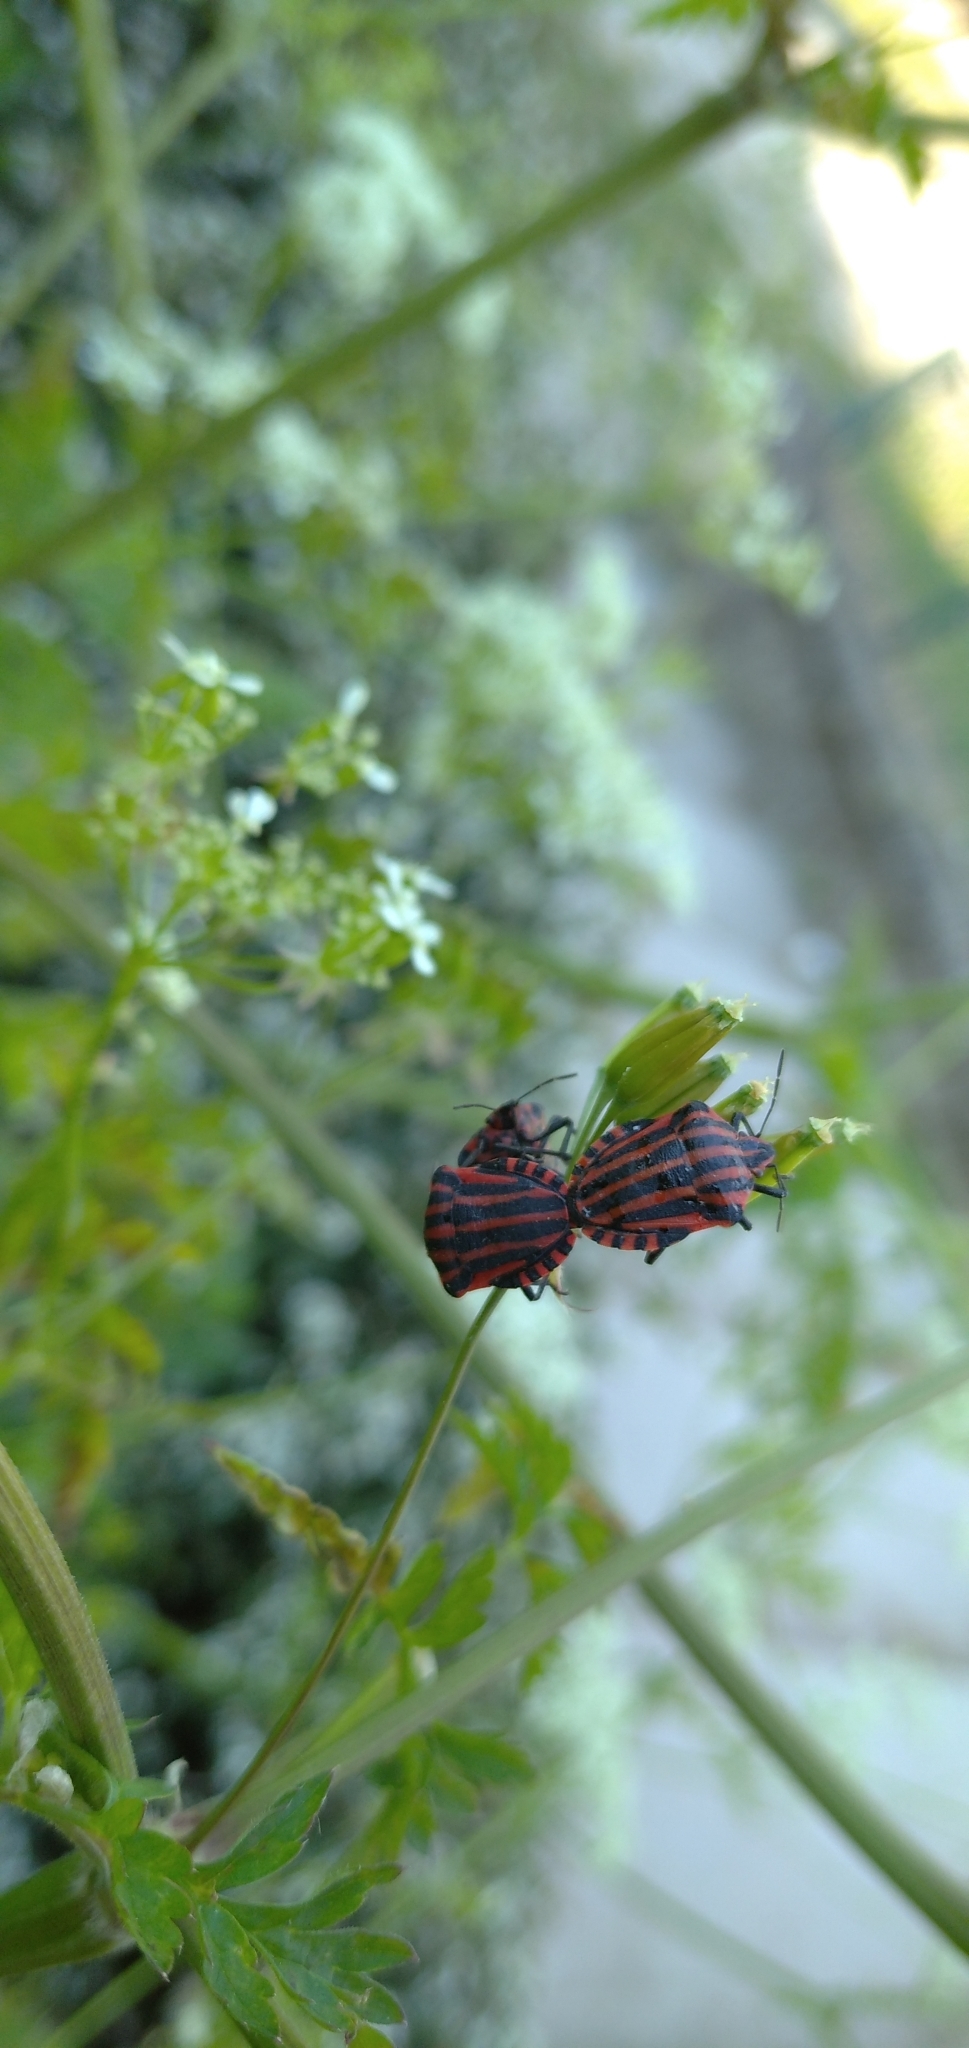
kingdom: Animalia
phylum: Arthropoda
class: Insecta
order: Hemiptera
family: Pentatomidae
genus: Graphosoma
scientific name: Graphosoma italicum
